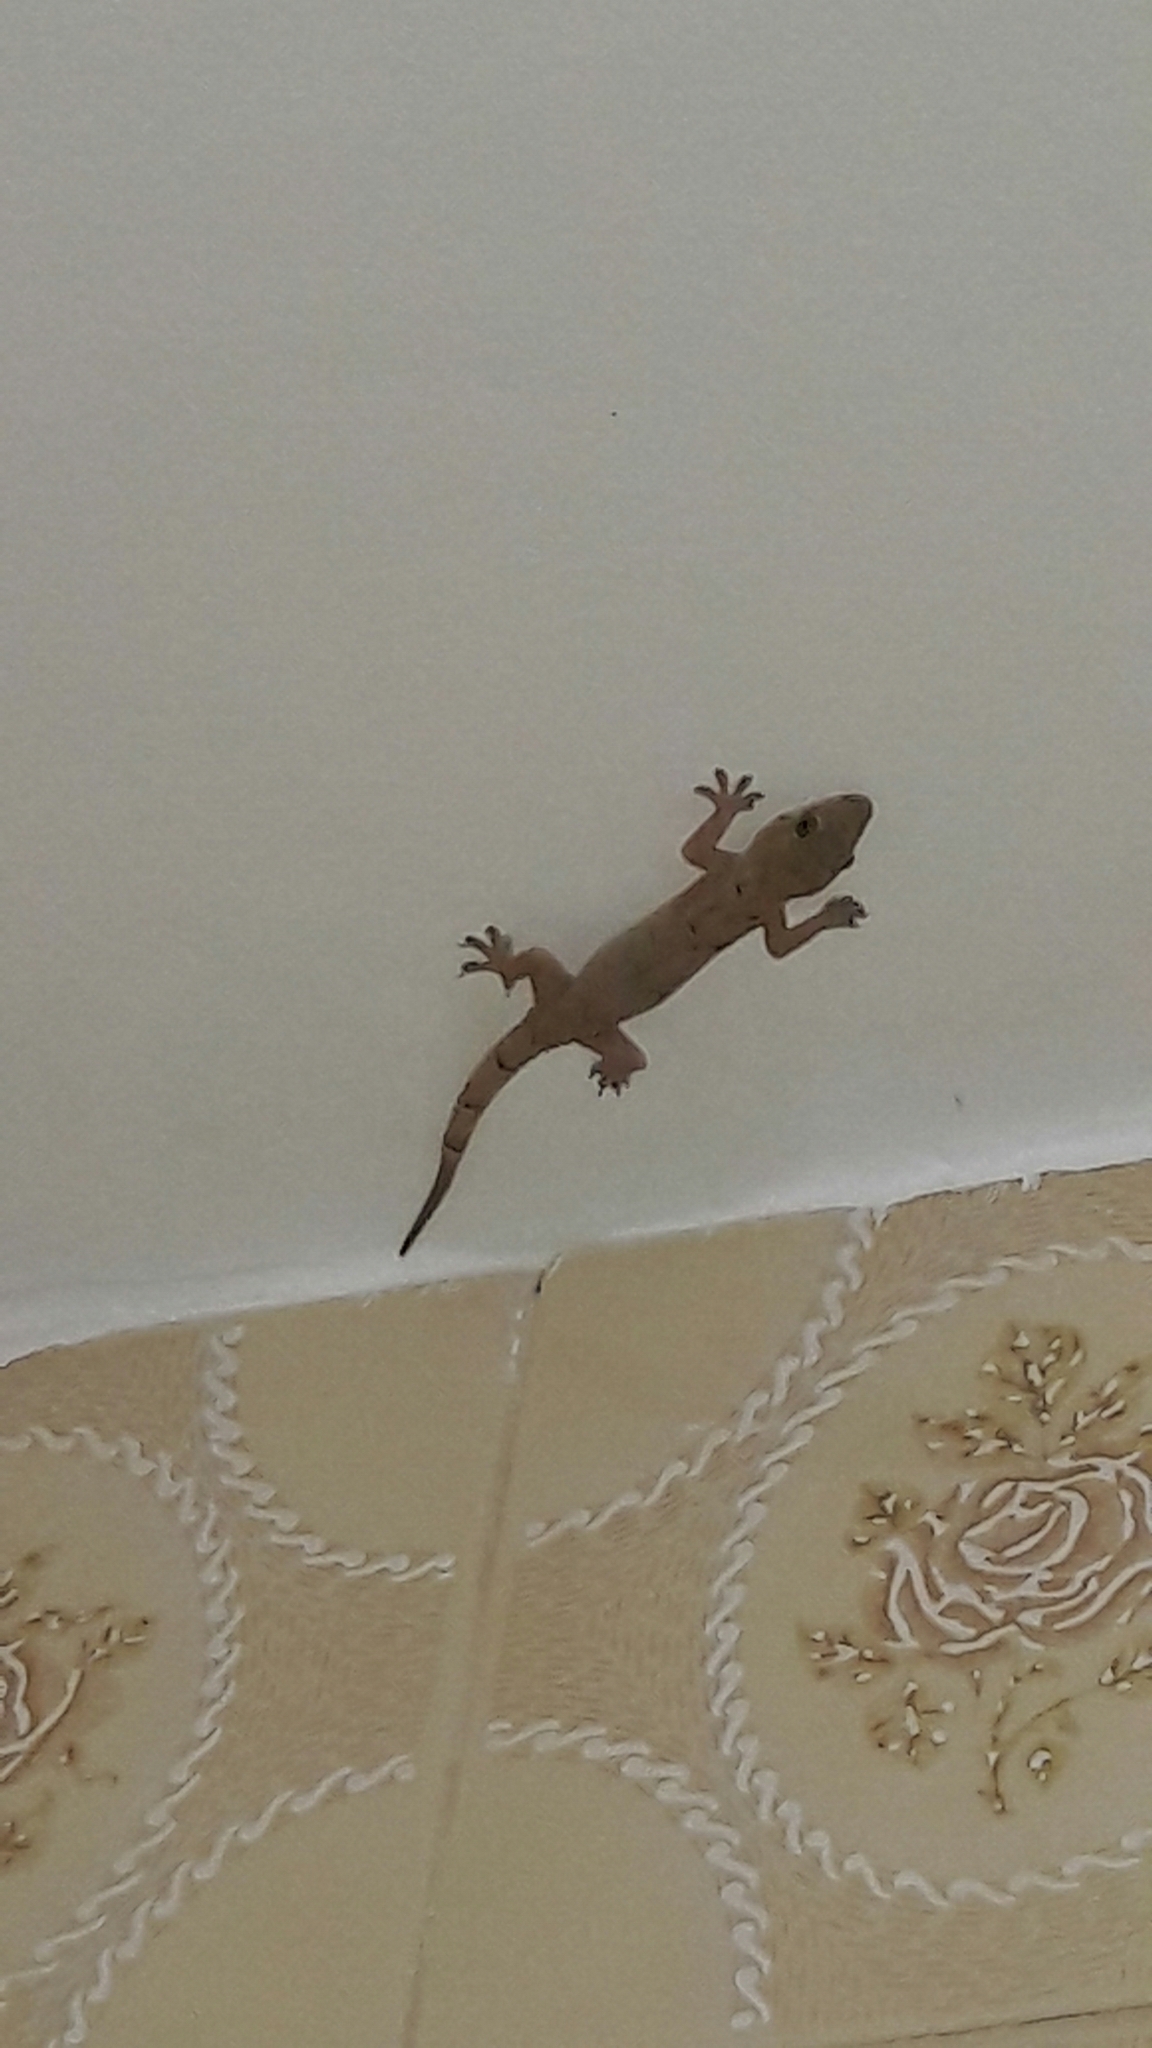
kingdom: Animalia
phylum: Chordata
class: Squamata
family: Gekkonidae
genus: Hemidactylus
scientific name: Hemidactylus mabouia
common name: House gecko
